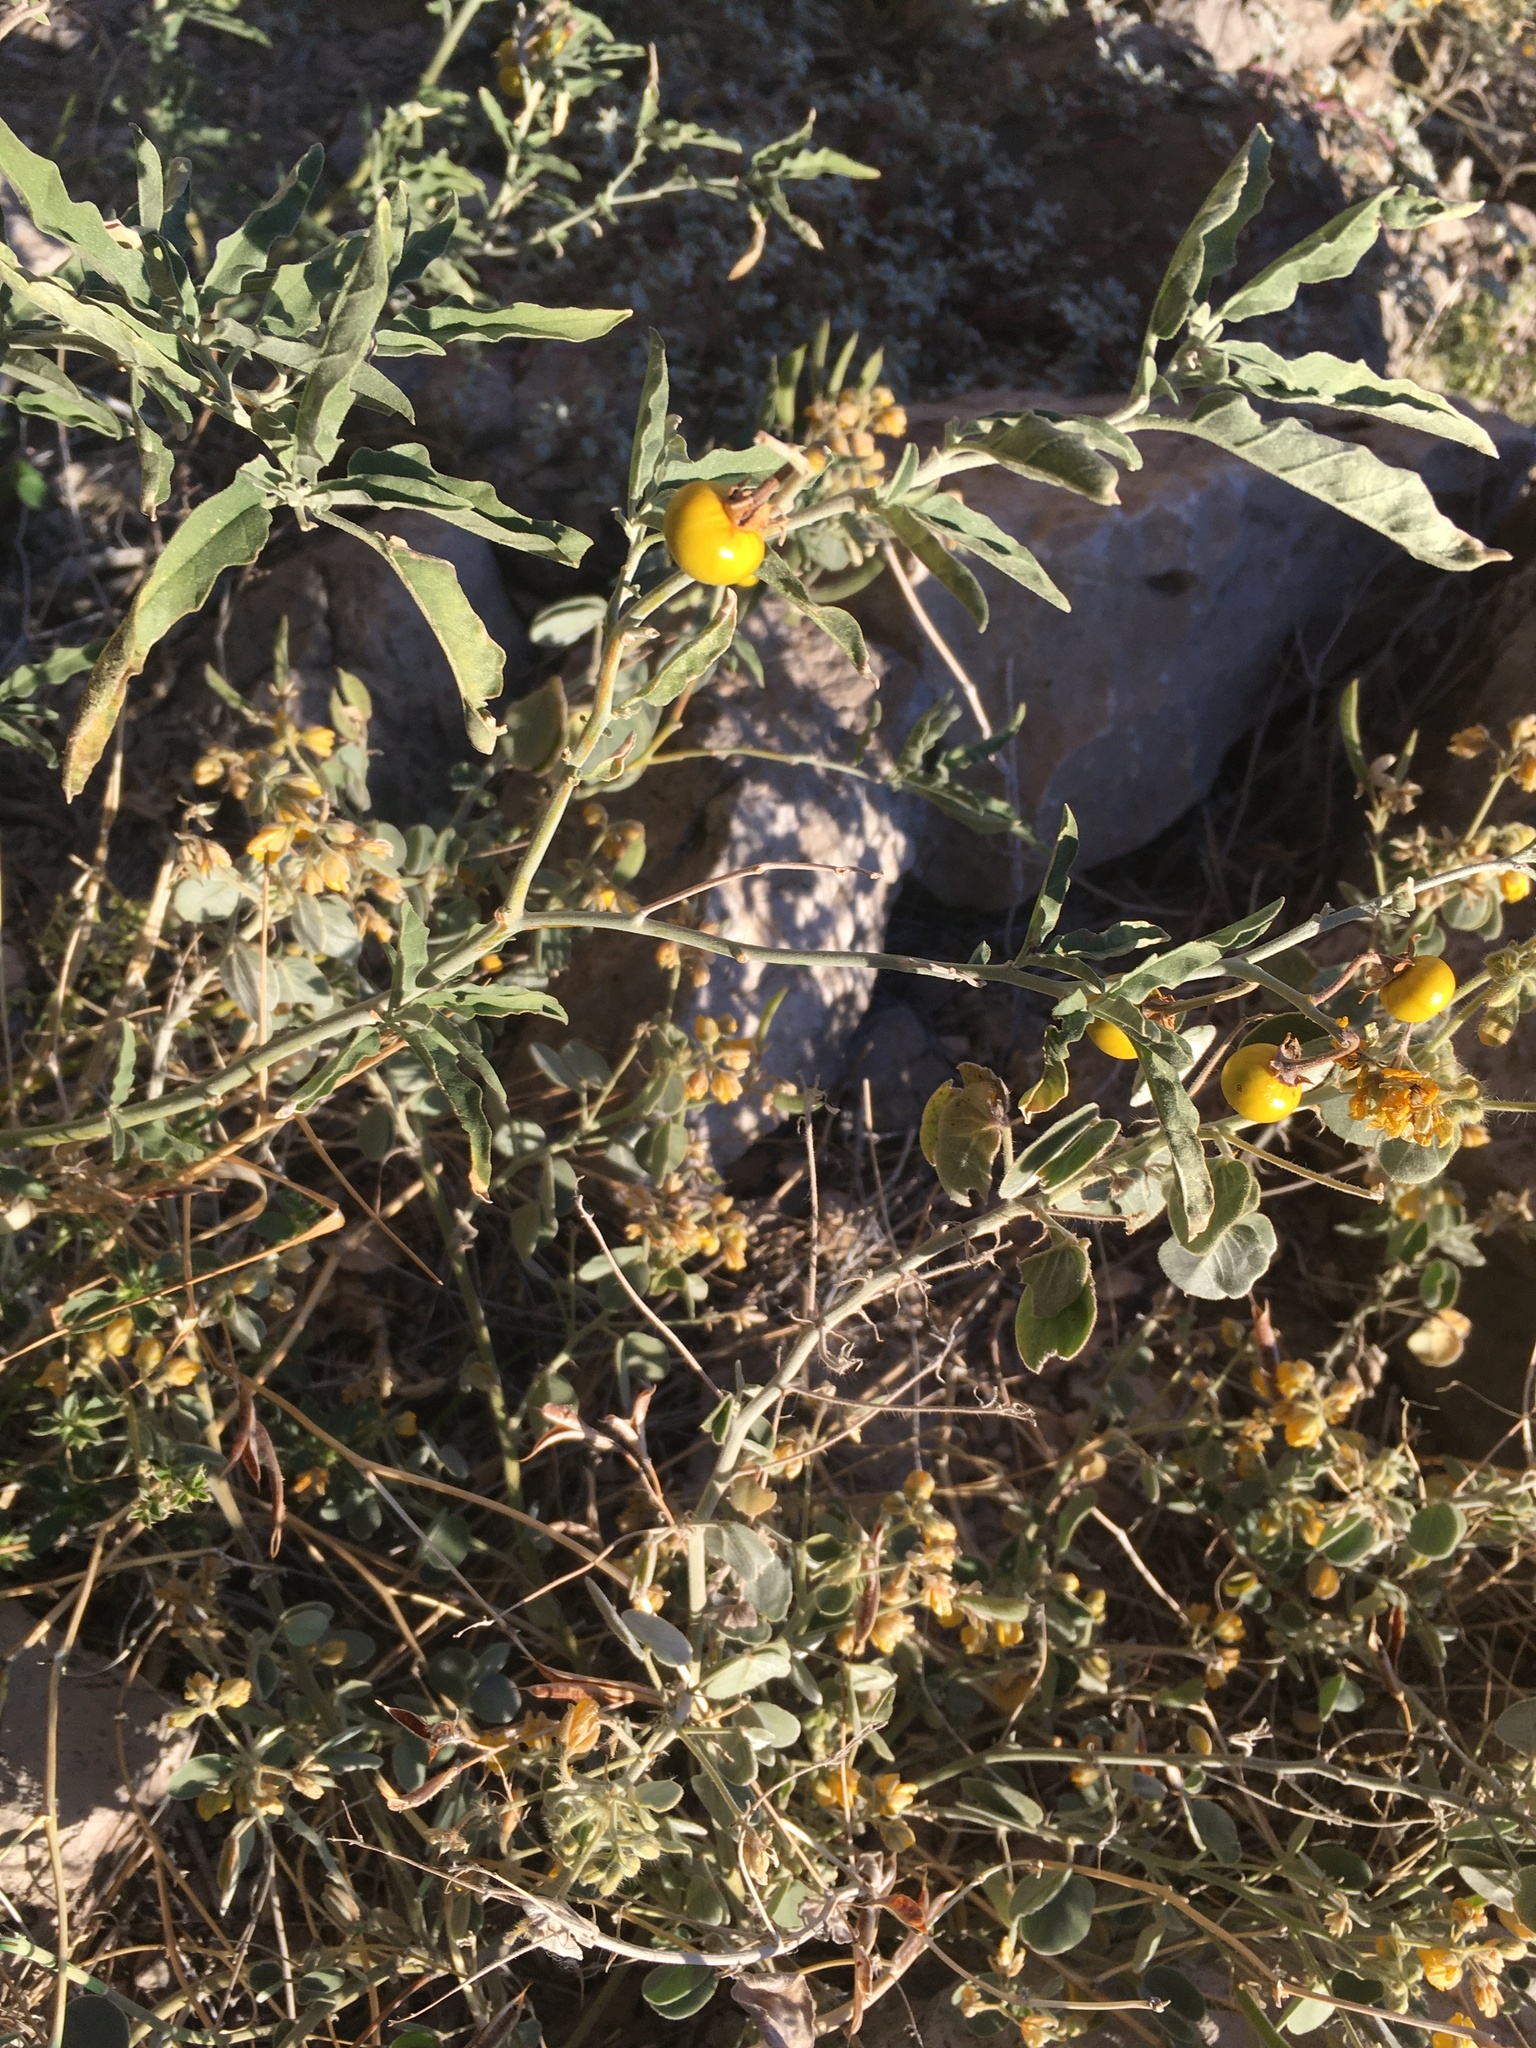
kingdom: Plantae
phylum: Tracheophyta
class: Magnoliopsida
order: Solanales
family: Solanaceae
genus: Solanum
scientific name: Solanum elaeagnifolium
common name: Silverleaf nightshade
